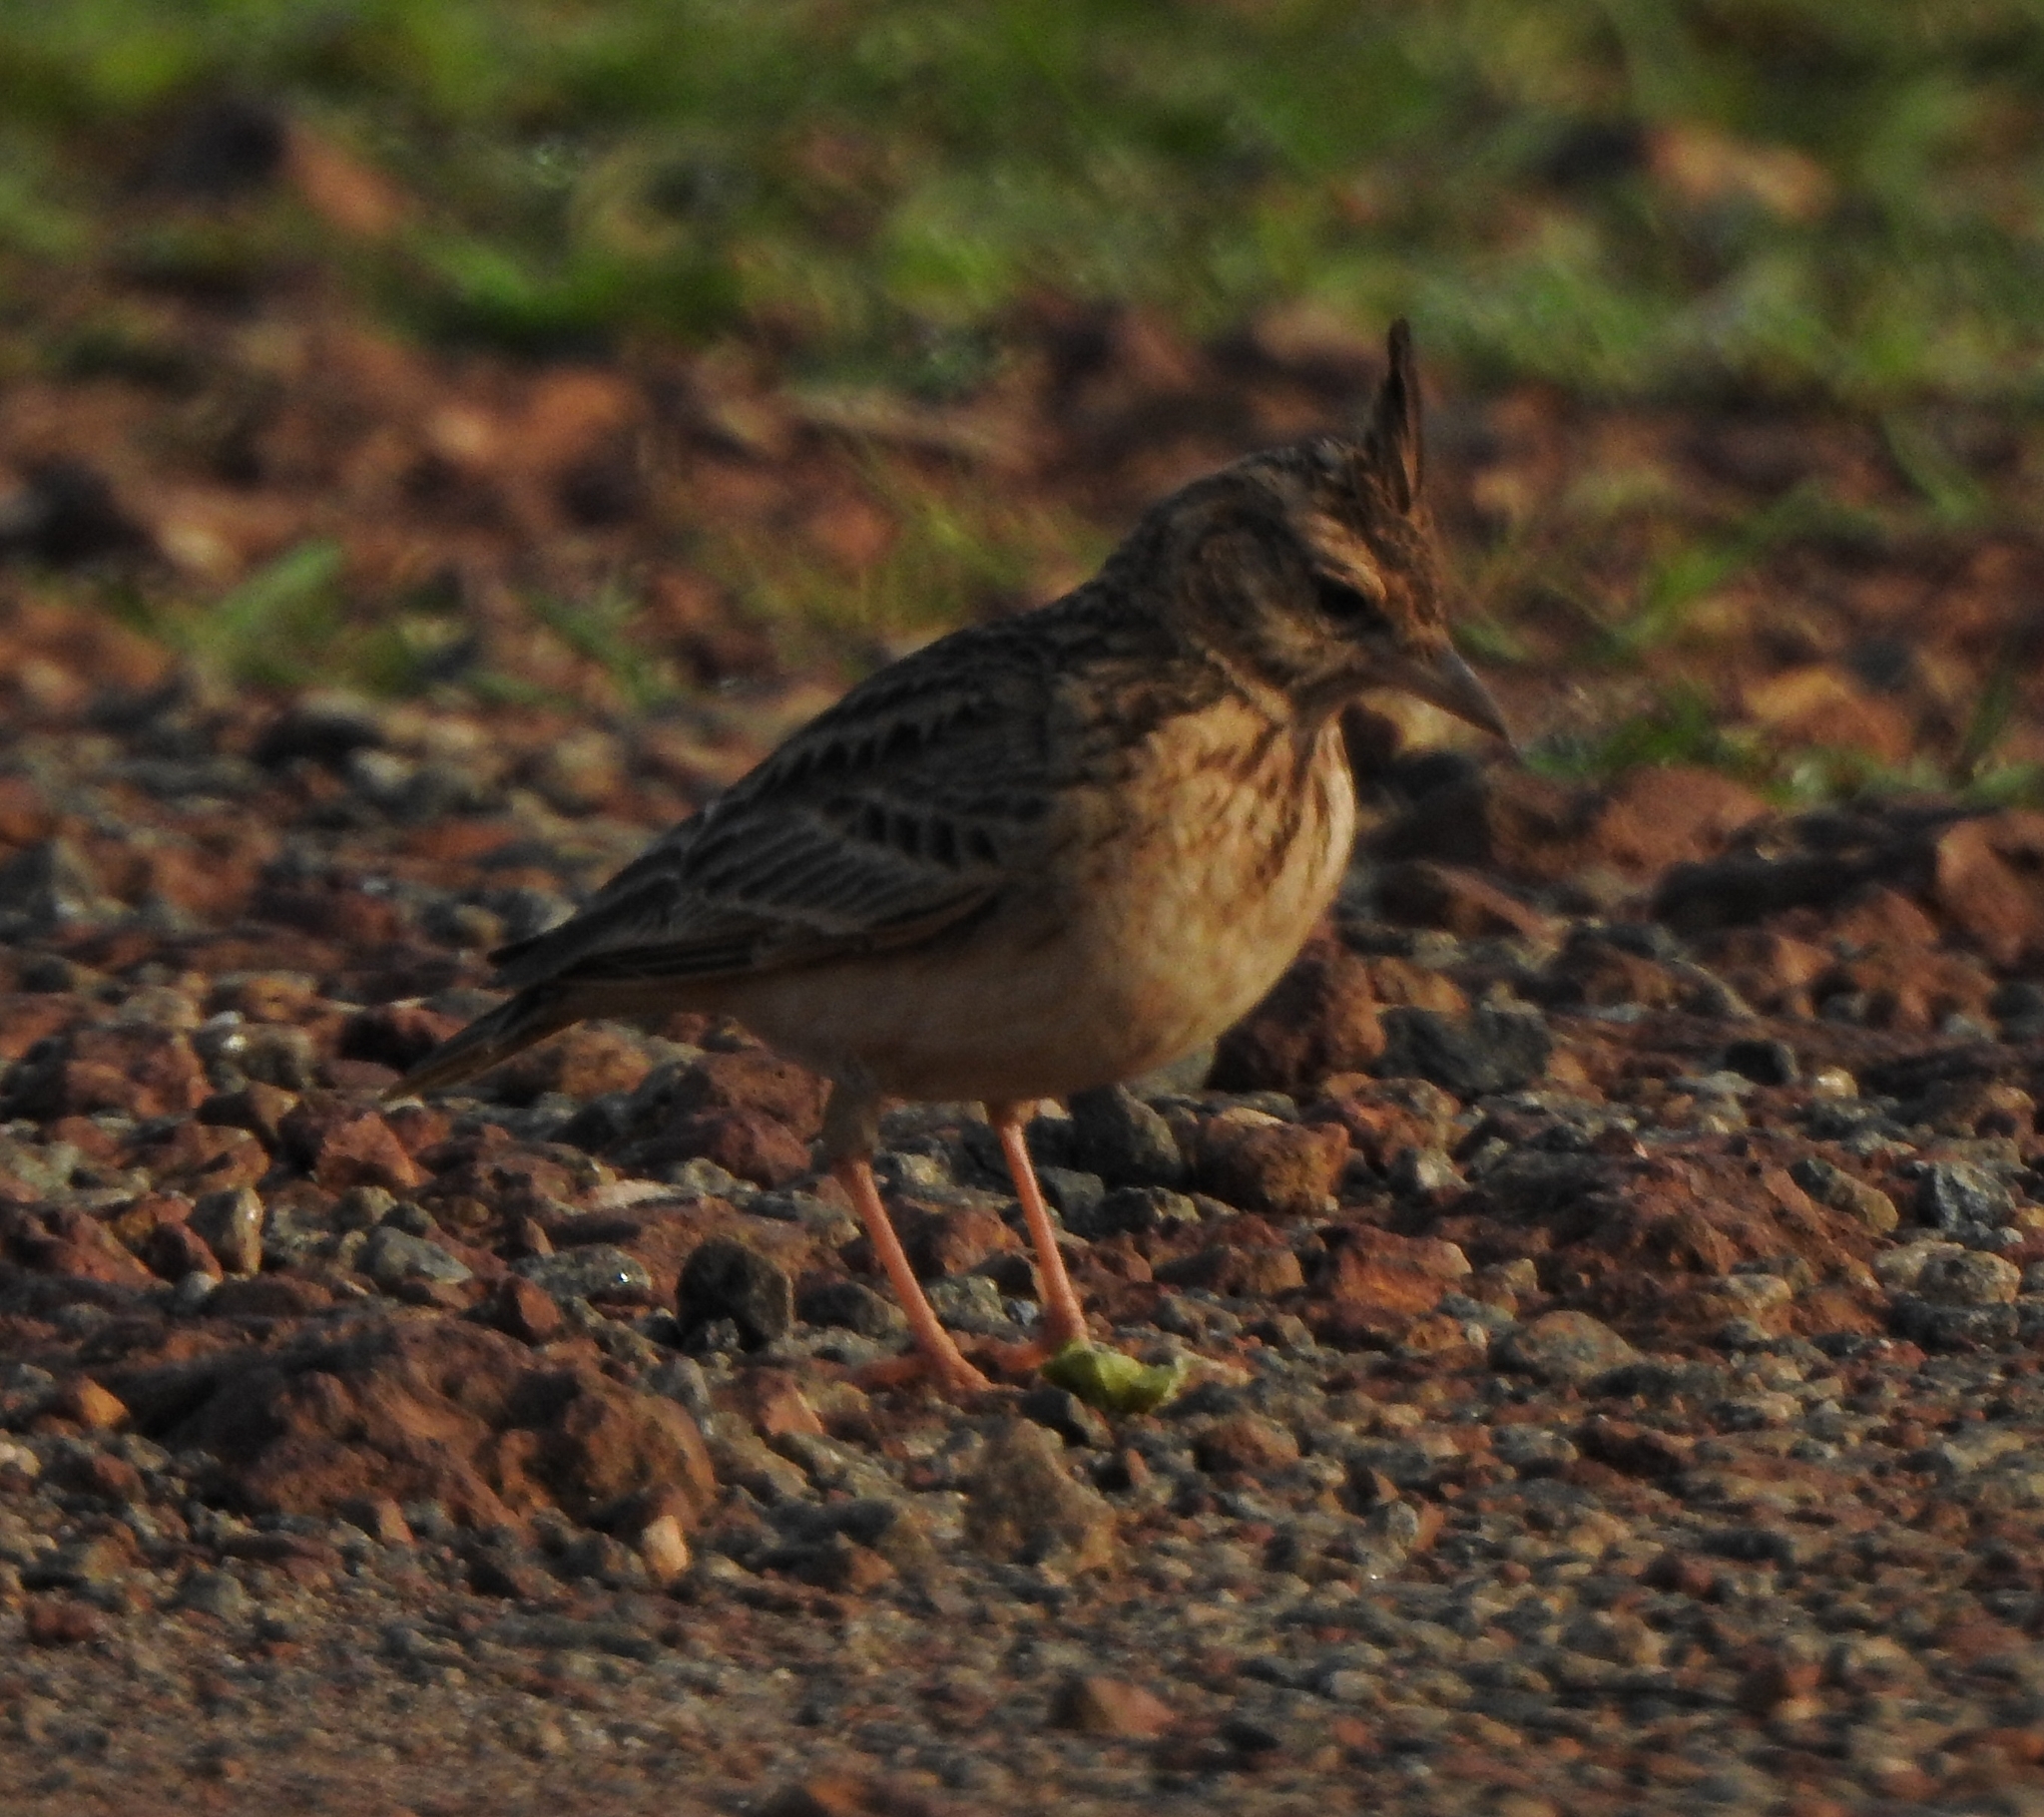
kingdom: Animalia
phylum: Chordata
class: Aves
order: Passeriformes
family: Alaudidae
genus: Galerida
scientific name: Galerida malabarica
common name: Malabar lark
